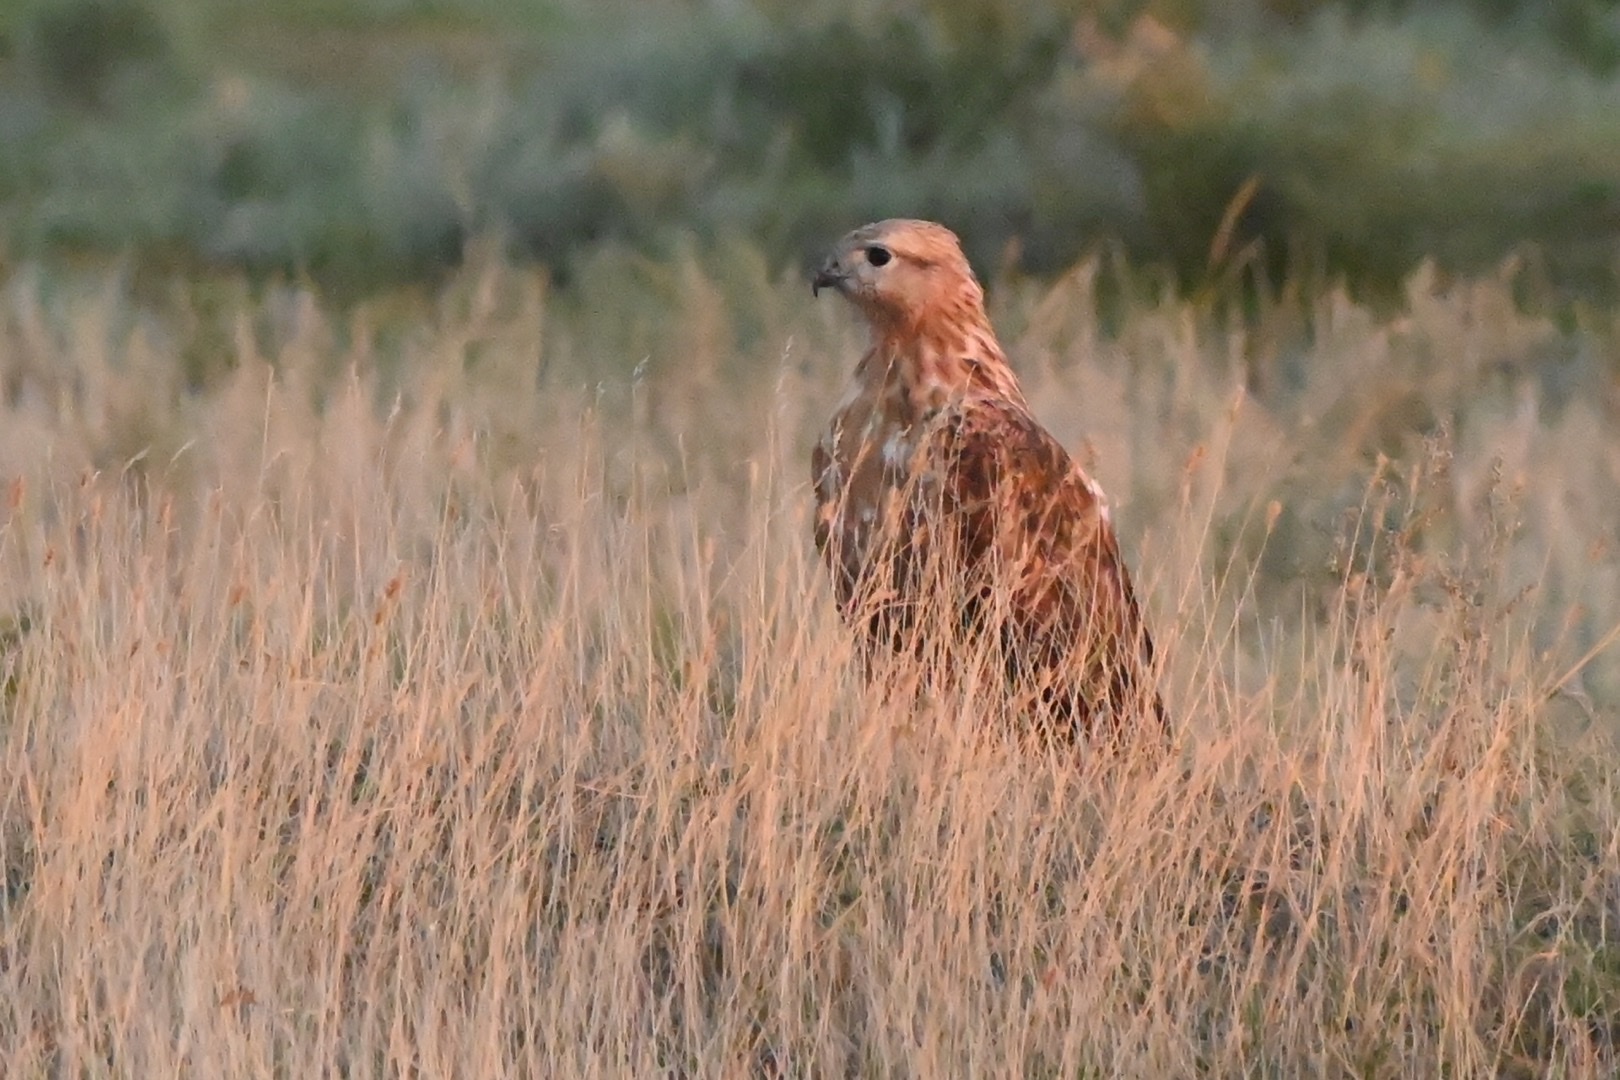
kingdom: Animalia
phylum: Chordata
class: Aves
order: Accipitriformes
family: Accipitridae
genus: Buteo
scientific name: Buteo rufinus
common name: Long-legged buzzard
